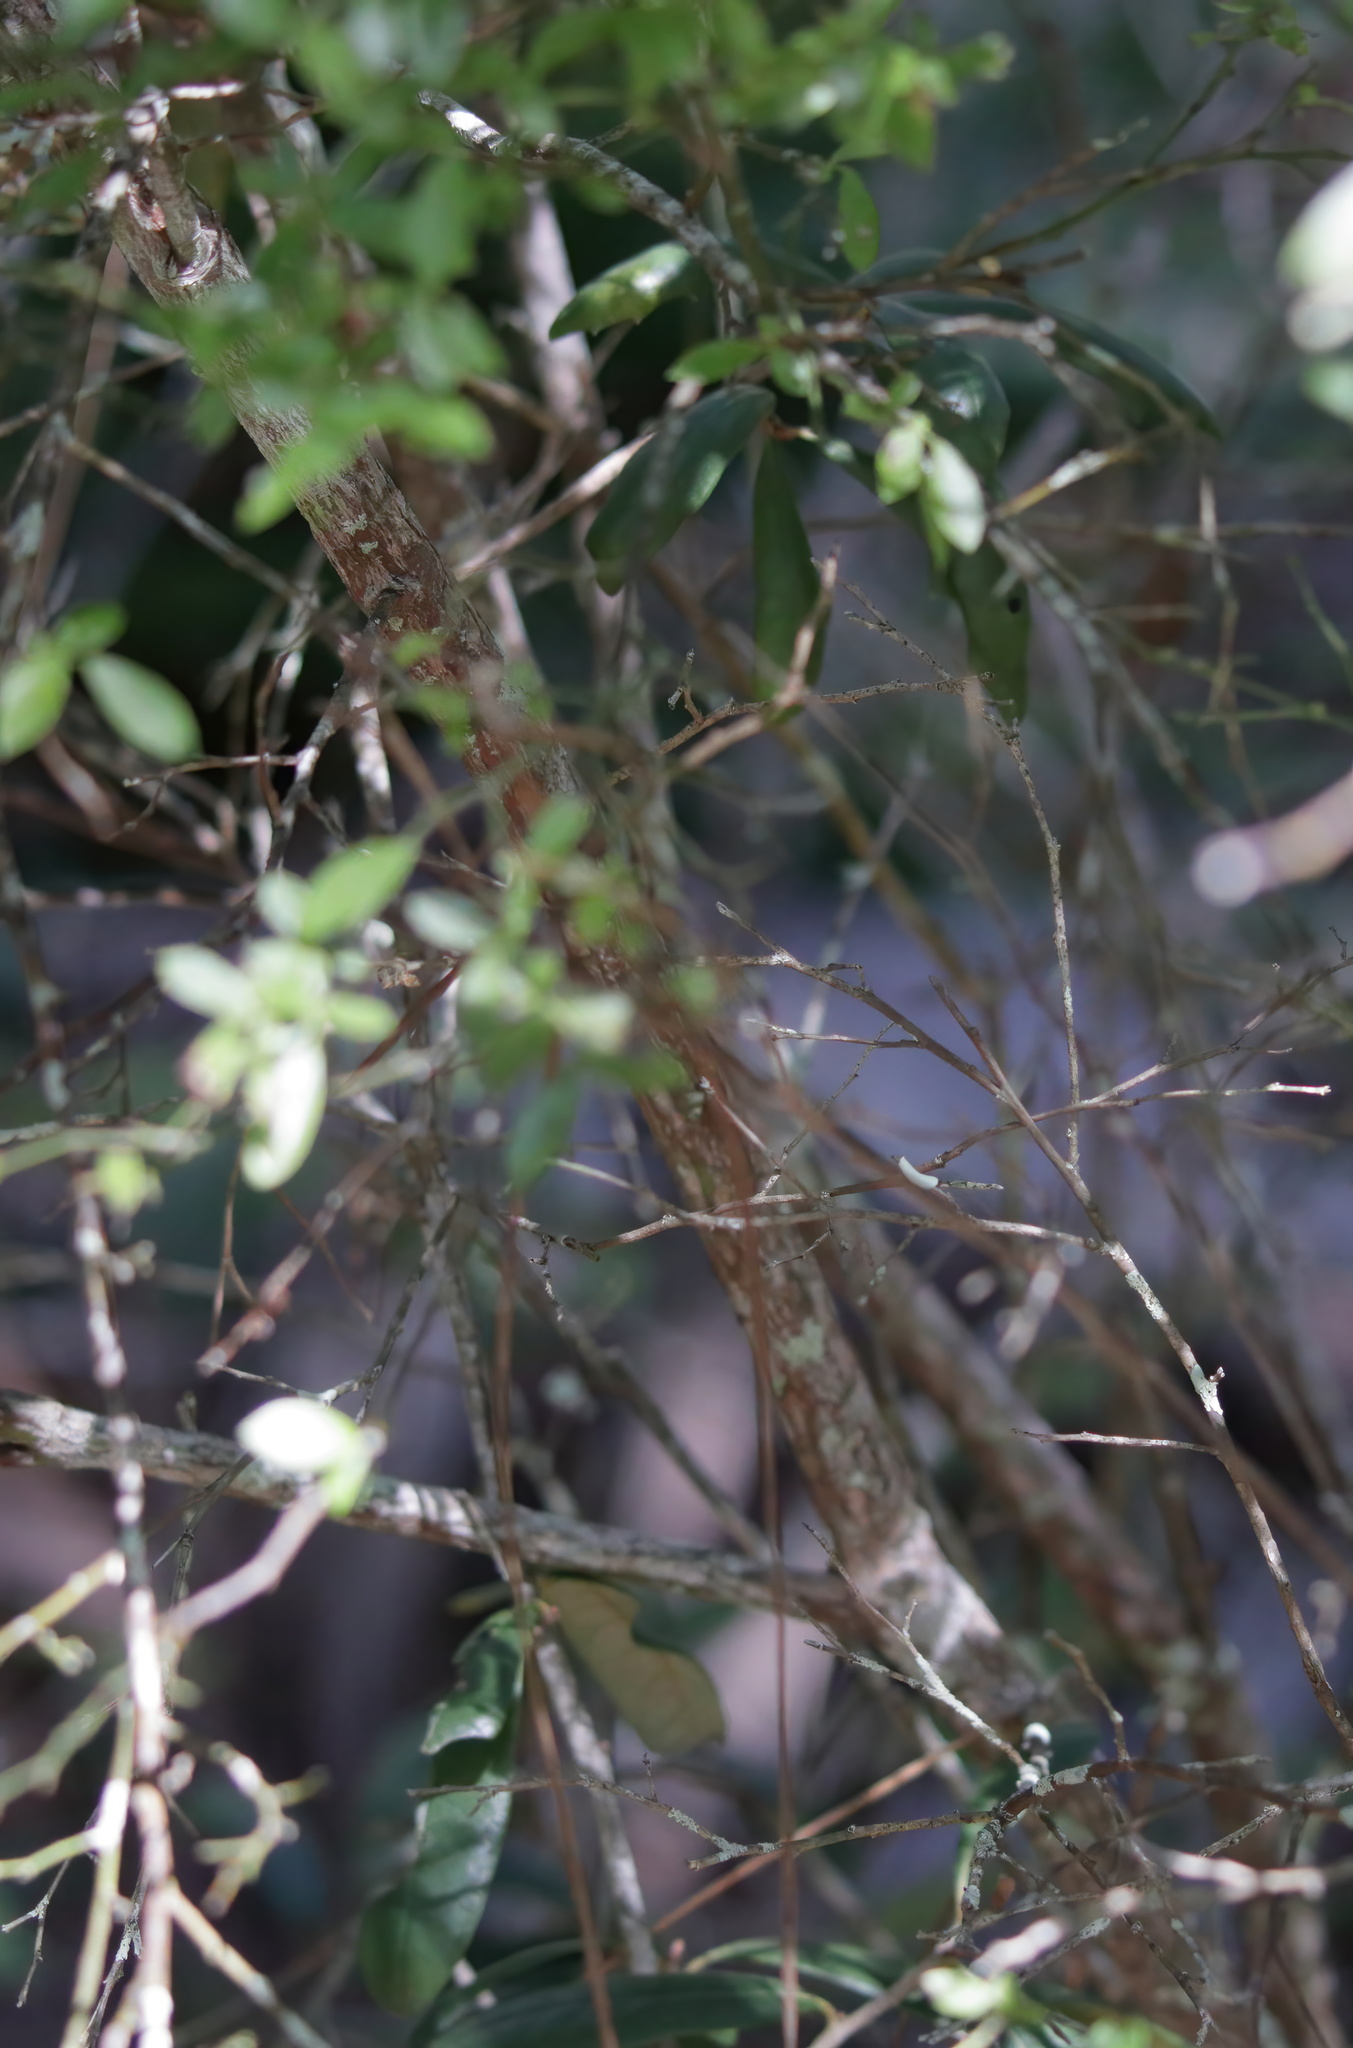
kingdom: Plantae
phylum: Tracheophyta
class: Magnoliopsida
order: Ericales
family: Ericaceae
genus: Vaccinium
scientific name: Vaccinium corymbosum
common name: Blueberry
